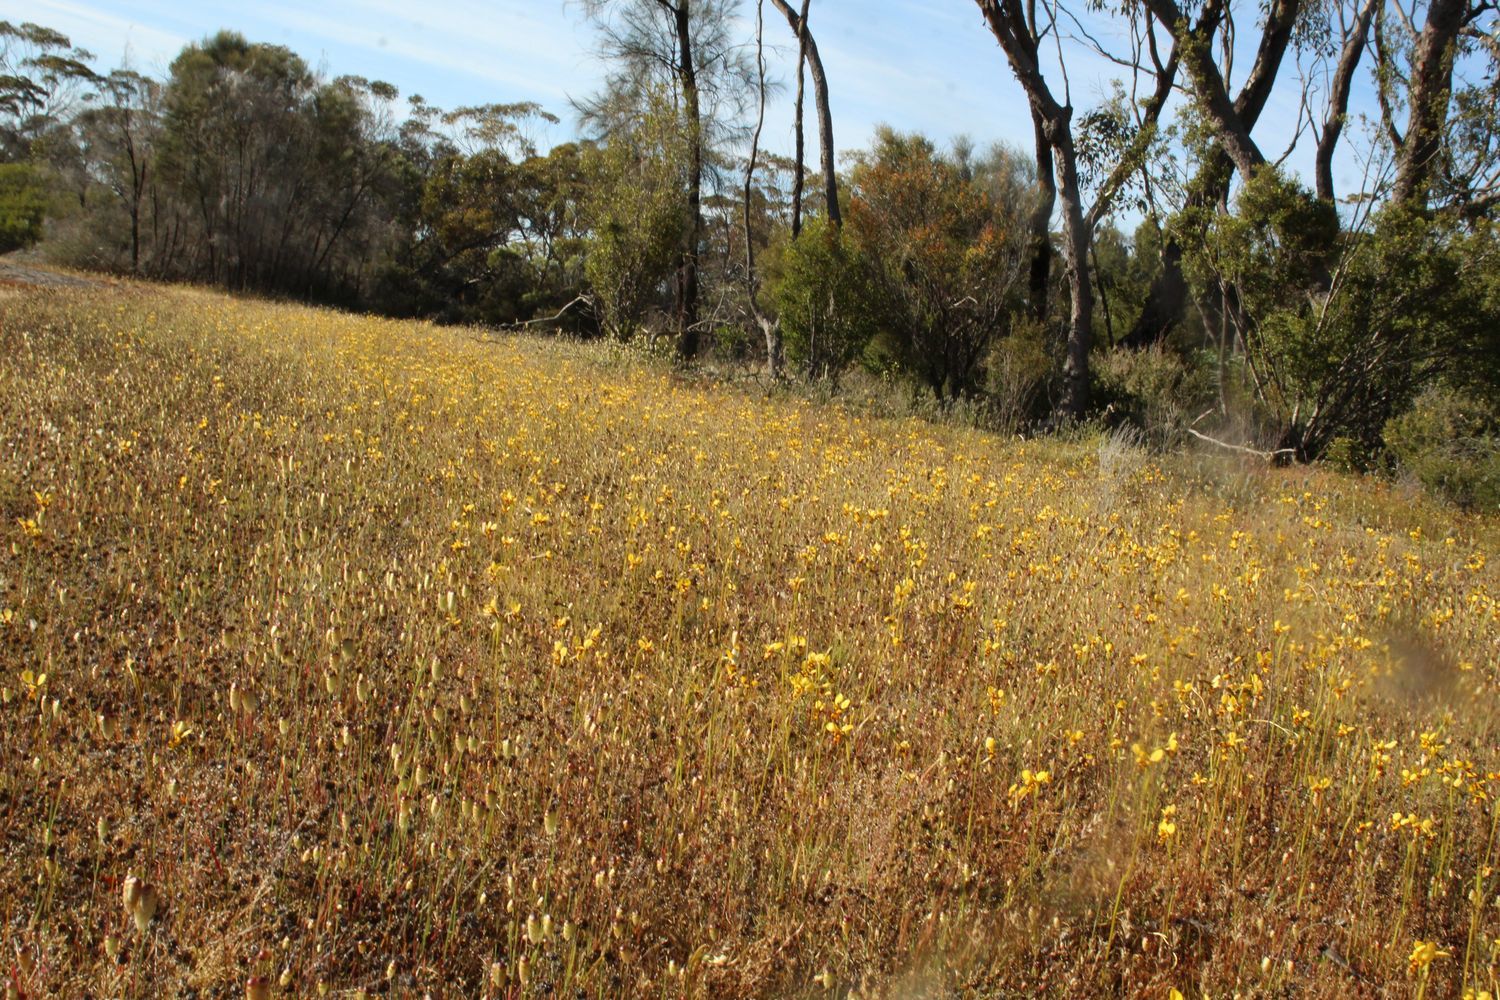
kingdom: Plantae
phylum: Tracheophyta
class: Liliopsida
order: Asparagales
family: Orchidaceae
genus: Diuris
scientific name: Diuris picta
